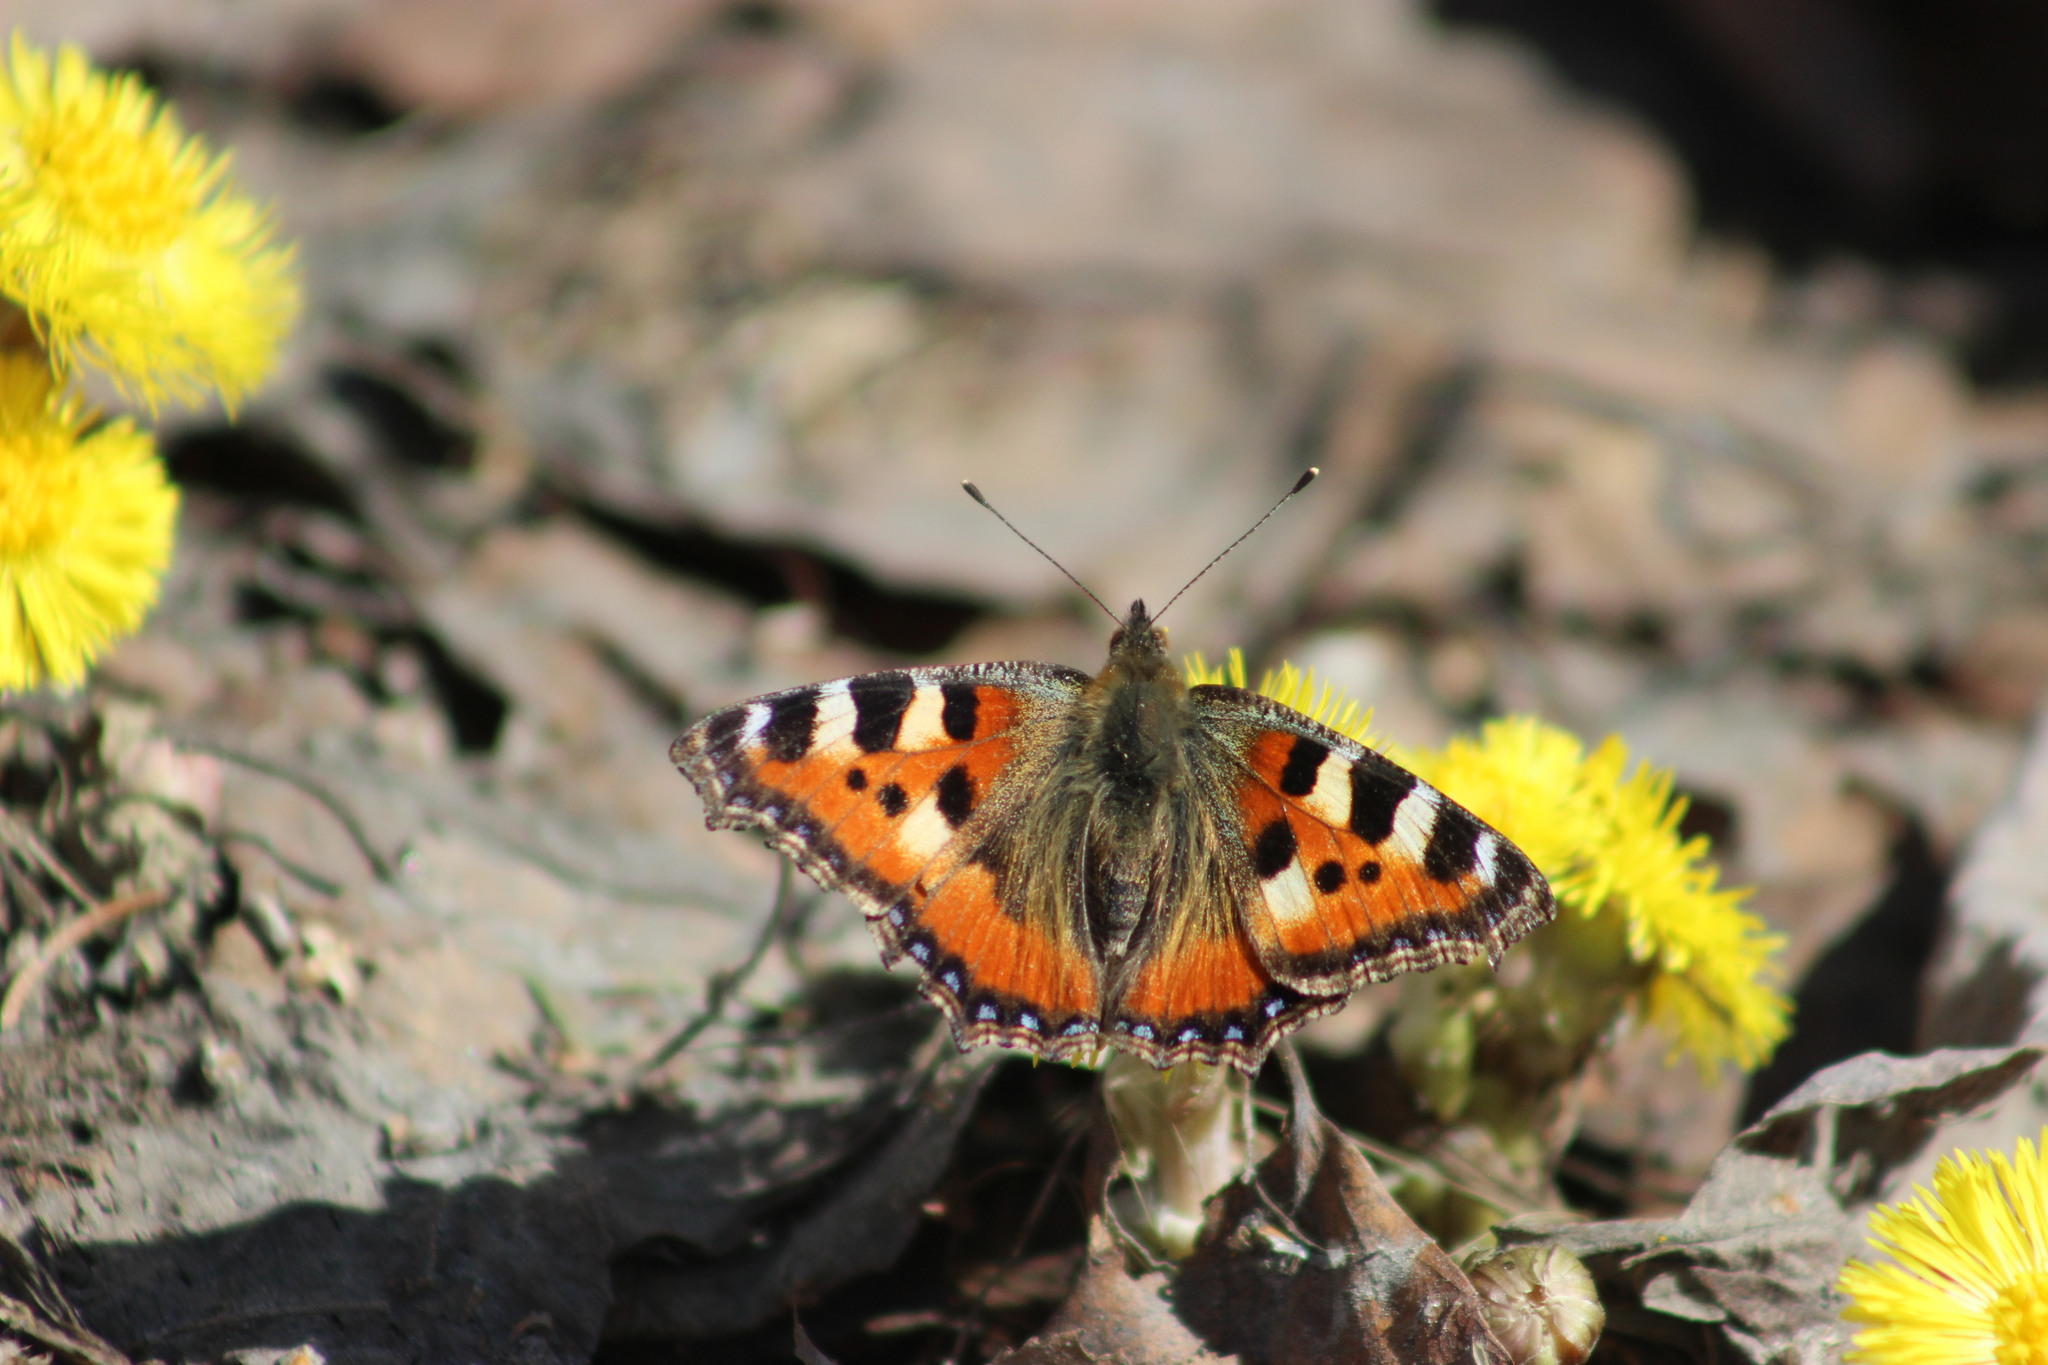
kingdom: Animalia
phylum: Arthropoda
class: Insecta
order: Lepidoptera
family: Nymphalidae
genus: Aglais
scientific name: Aglais urticae
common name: Small tortoiseshell
